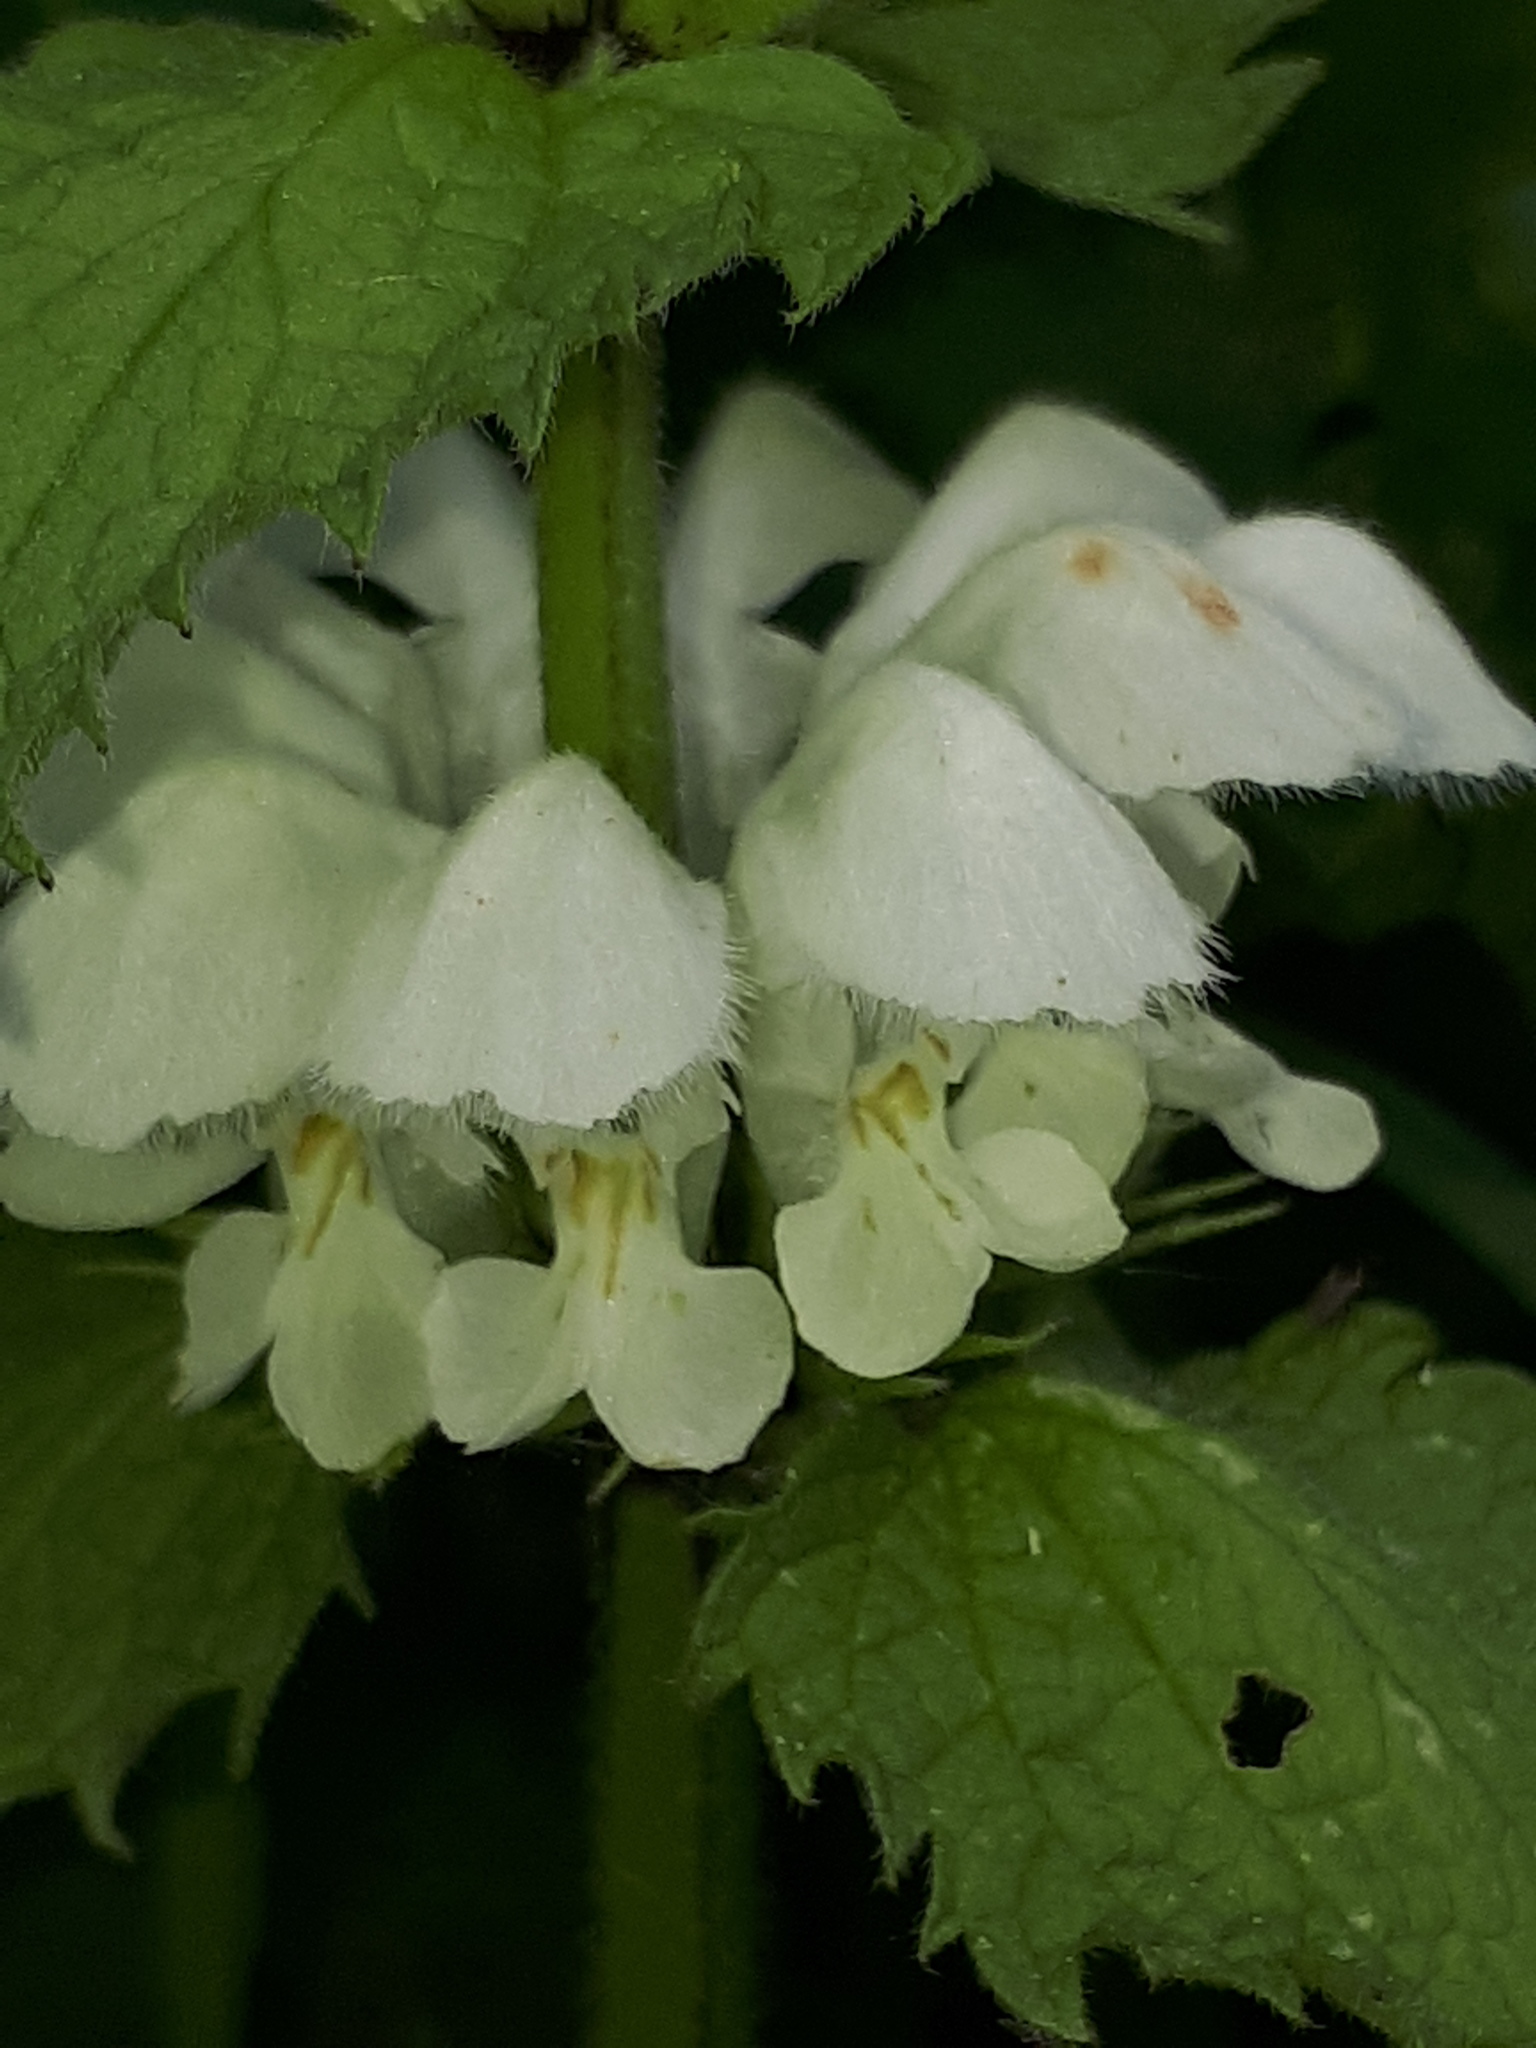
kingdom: Plantae
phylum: Tracheophyta
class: Magnoliopsida
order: Lamiales
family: Lamiaceae
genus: Lamium
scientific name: Lamium album
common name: White dead-nettle
